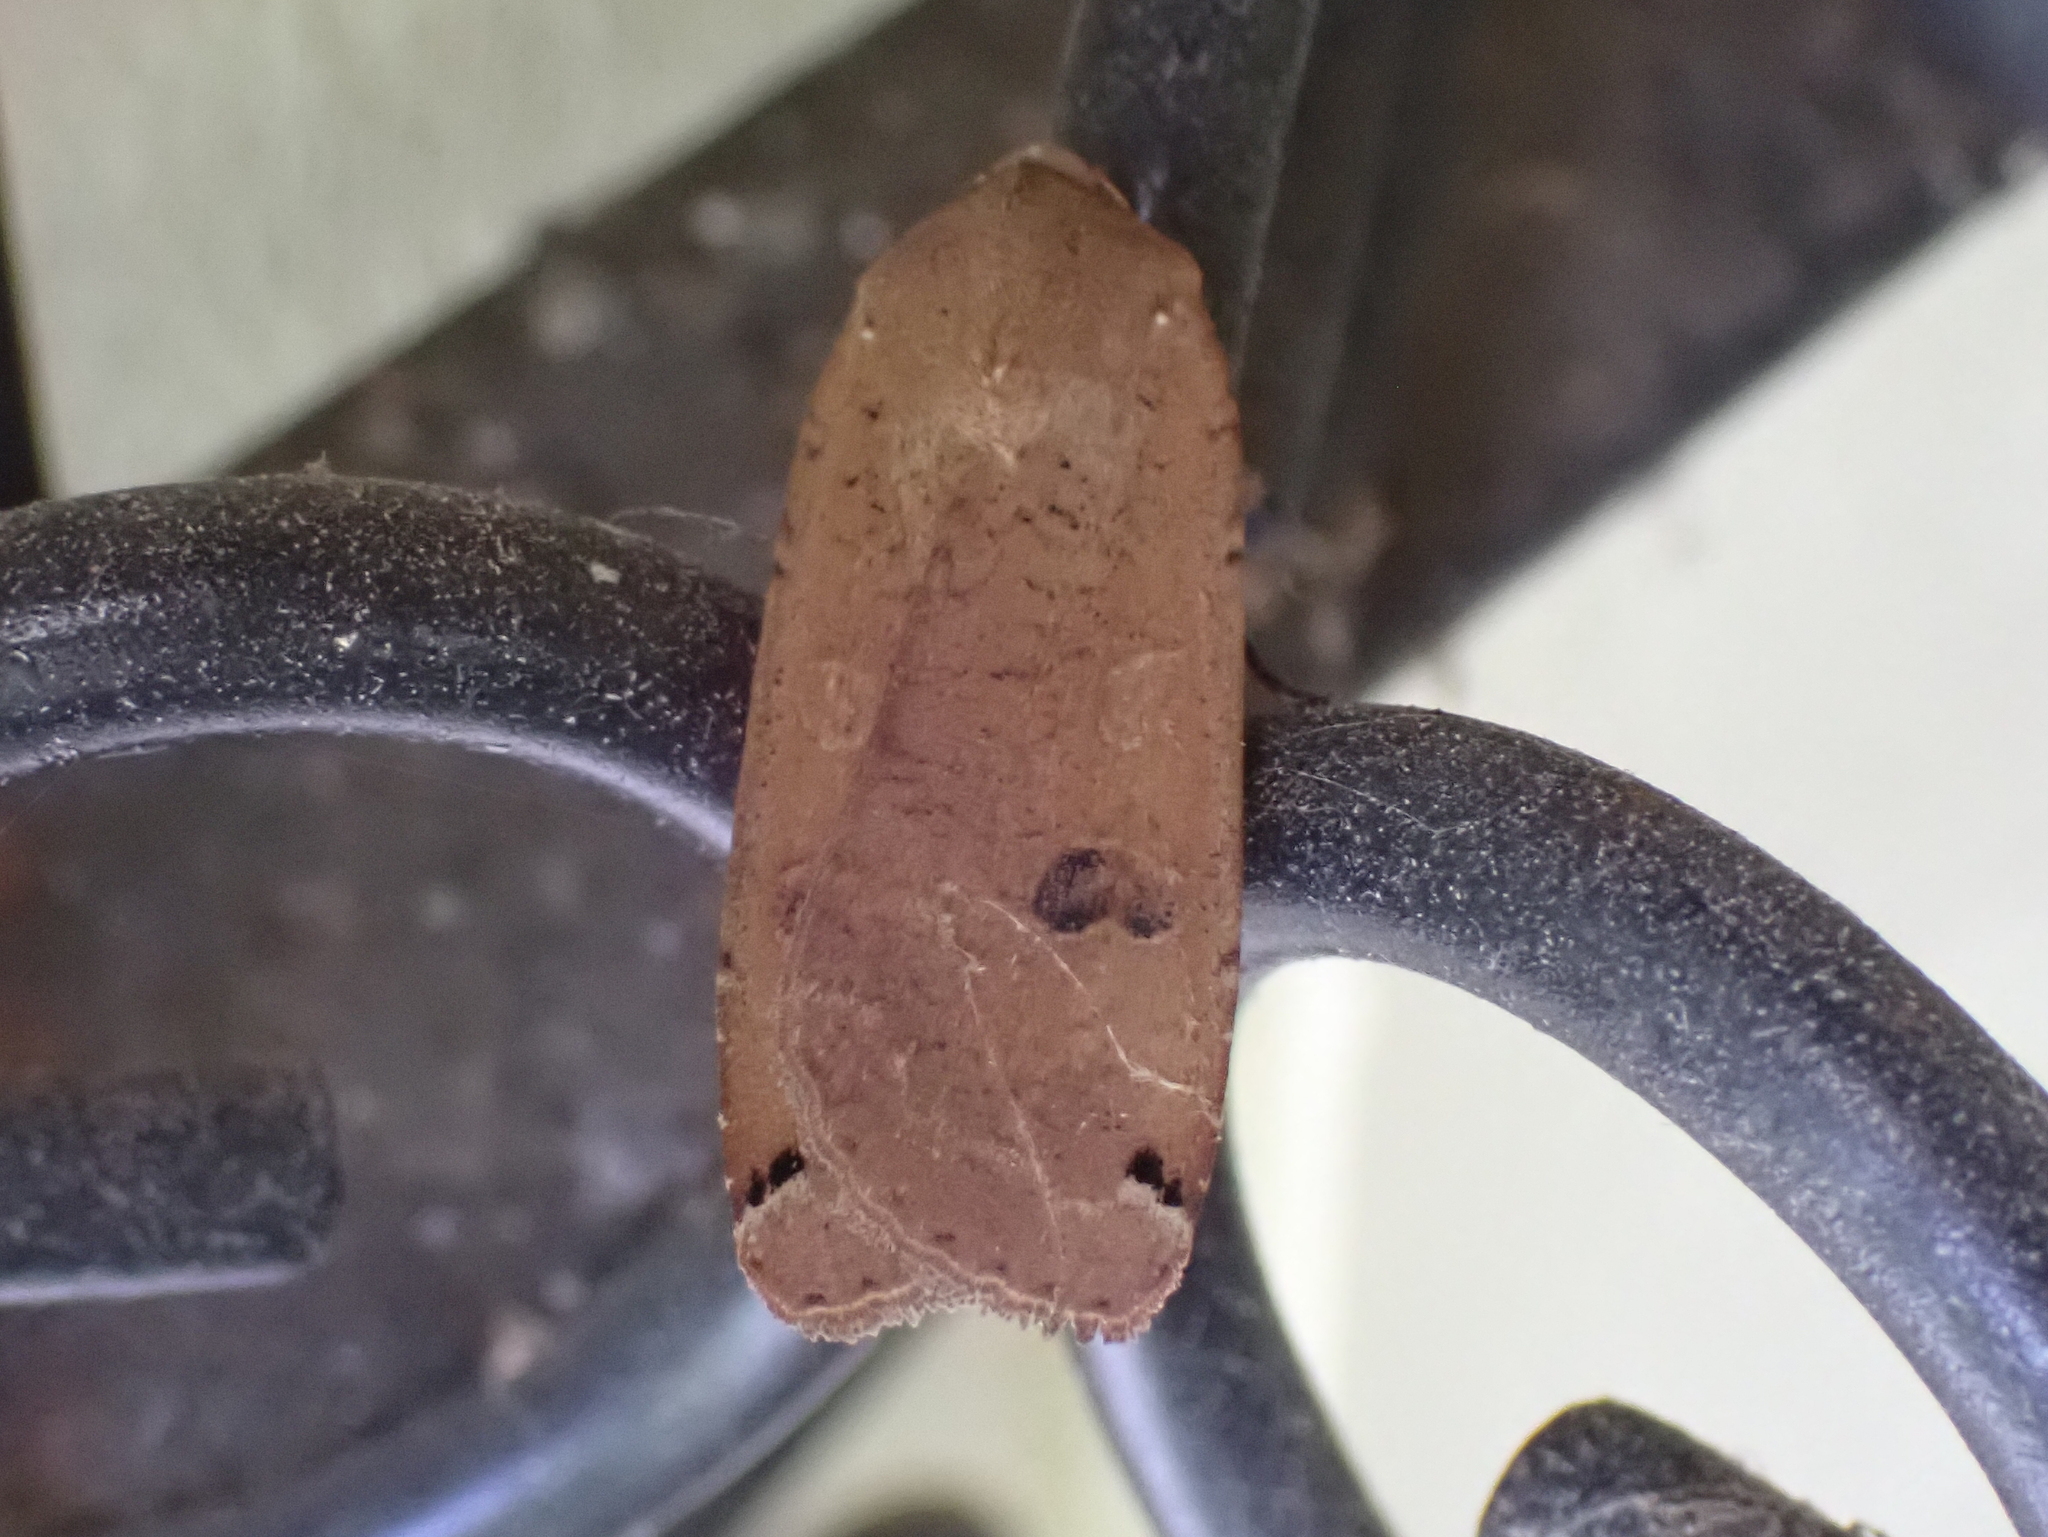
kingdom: Animalia
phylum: Arthropoda
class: Insecta
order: Lepidoptera
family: Noctuidae
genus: Noctua
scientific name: Noctua pronuba
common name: Large yellow underwing
